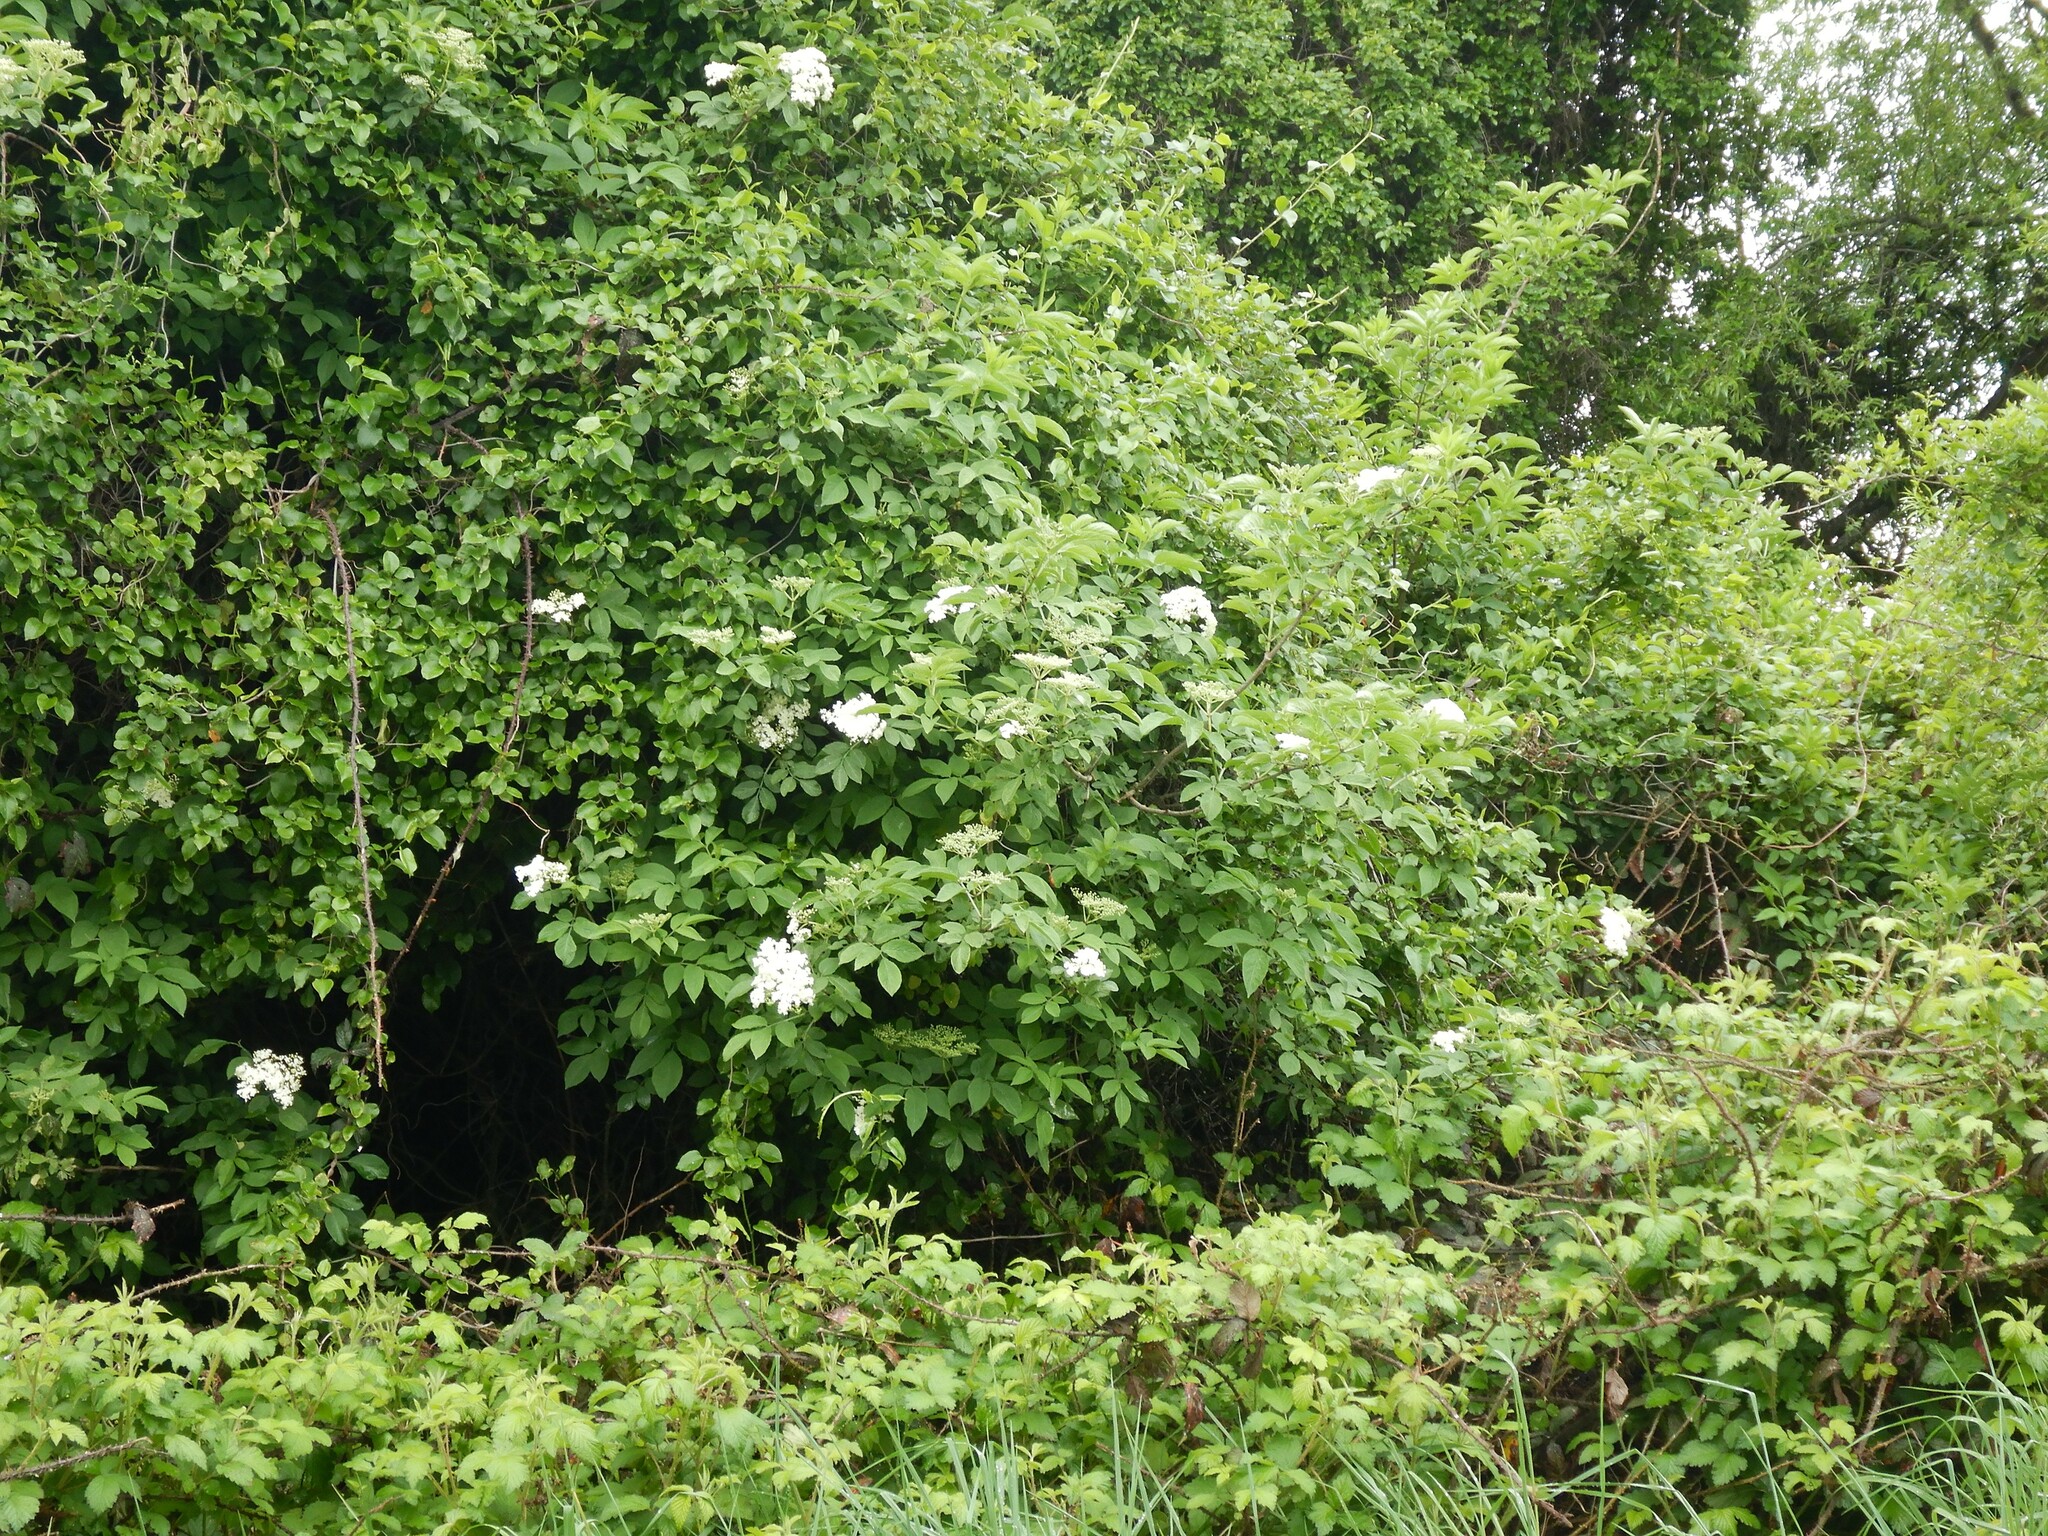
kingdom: Plantae
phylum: Tracheophyta
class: Magnoliopsida
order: Dipsacales
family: Viburnaceae
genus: Sambucus
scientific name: Sambucus nigra
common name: Elder
